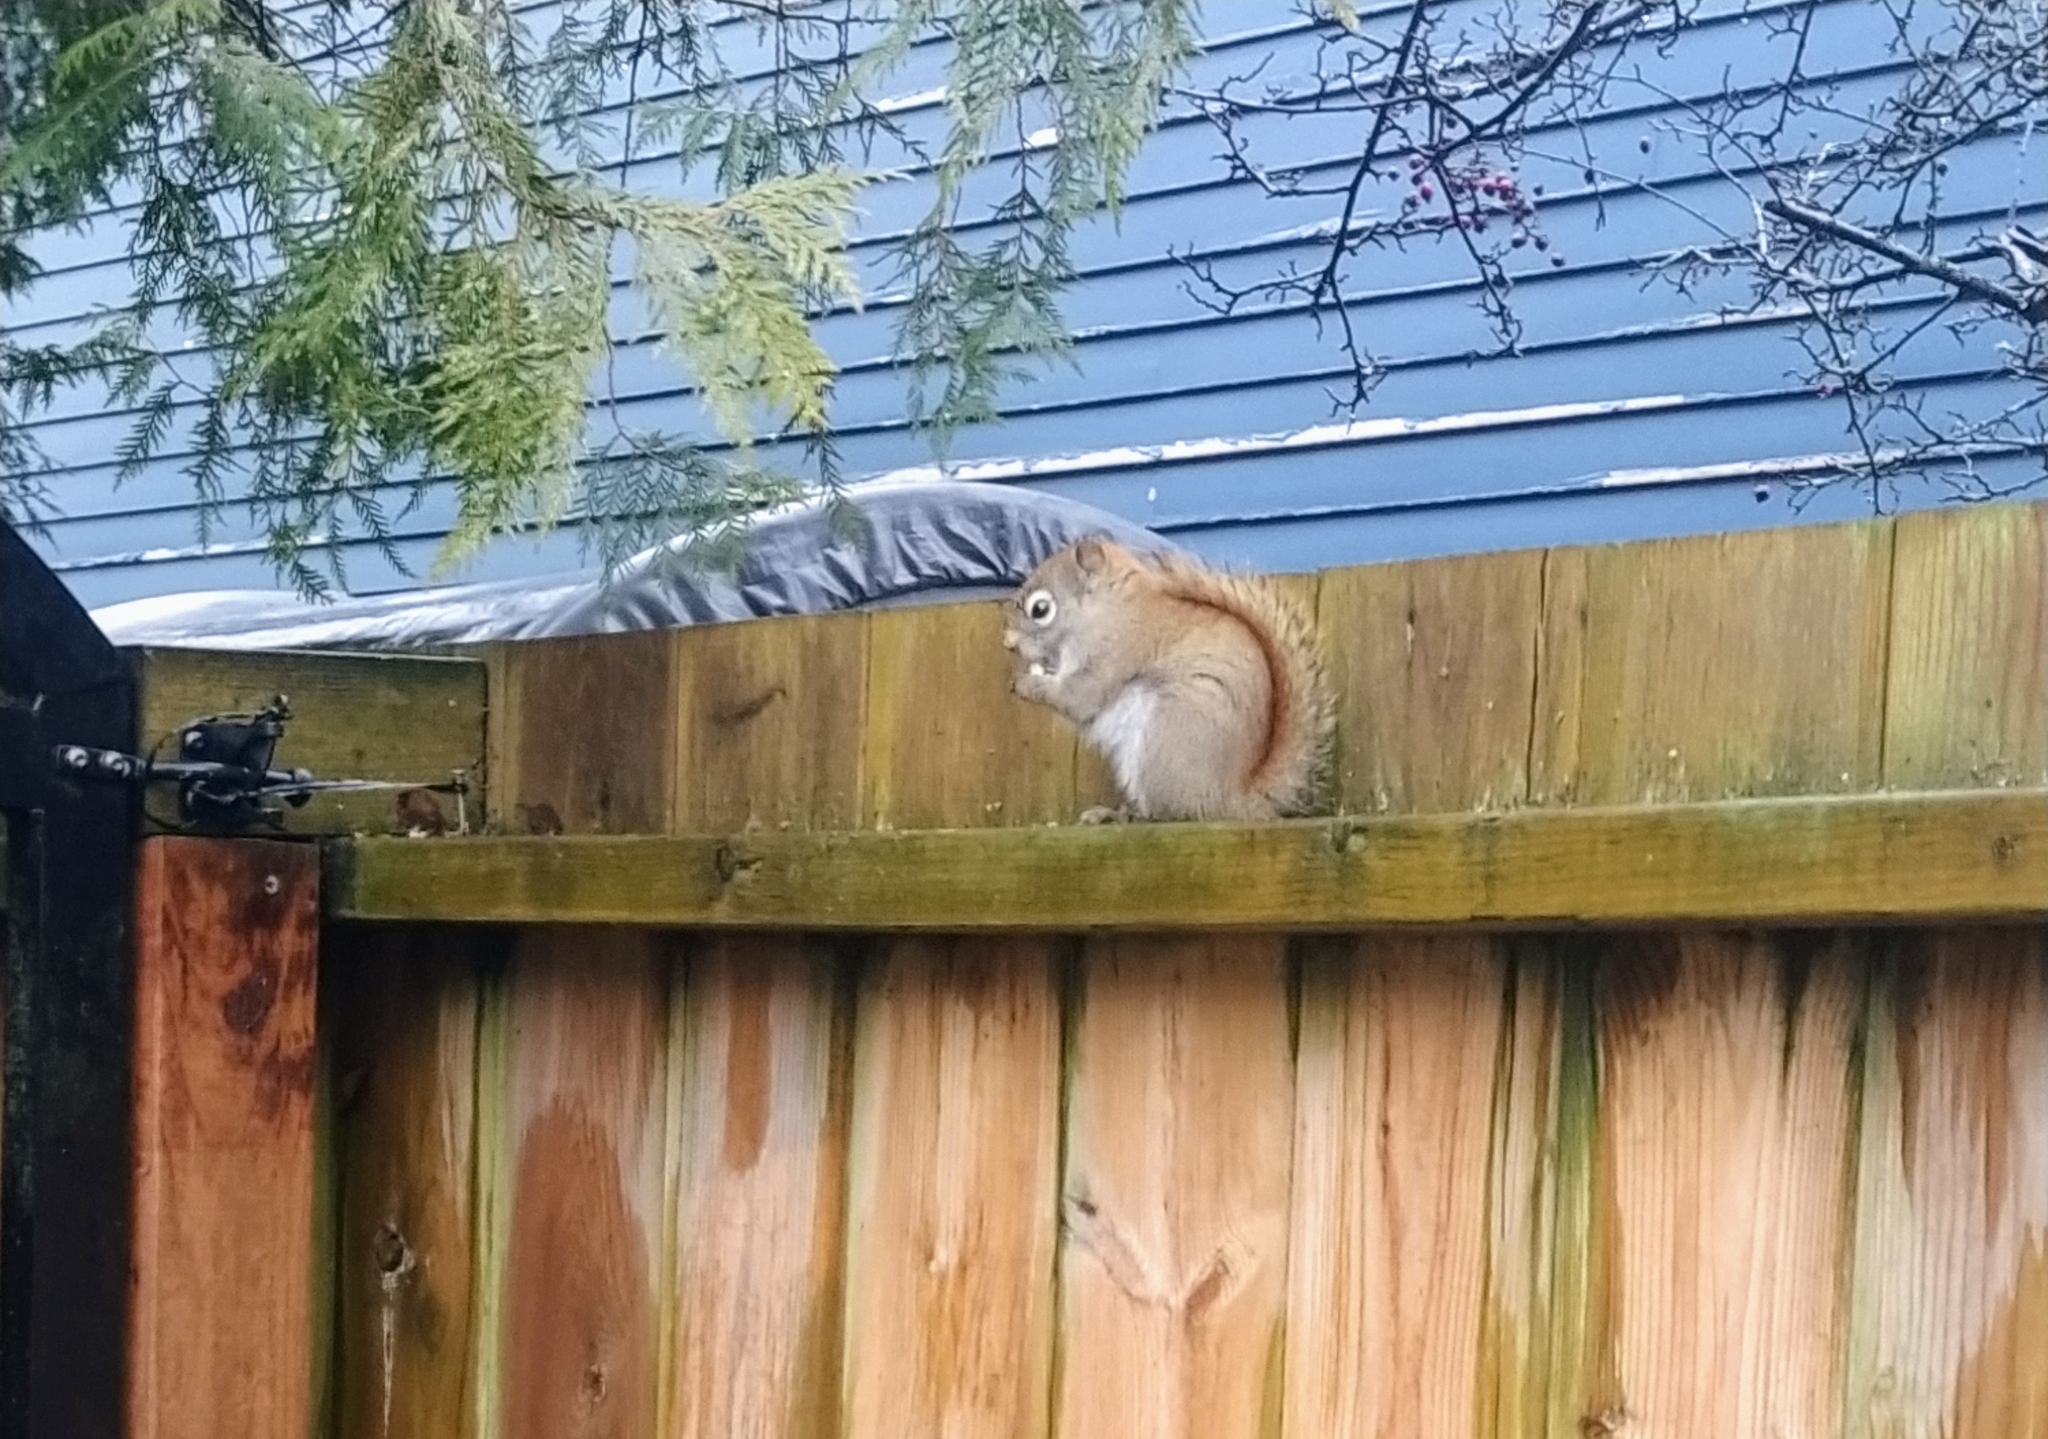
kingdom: Animalia
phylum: Chordata
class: Mammalia
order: Rodentia
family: Sciuridae
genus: Tamiasciurus
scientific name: Tamiasciurus hudsonicus
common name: Red squirrel
